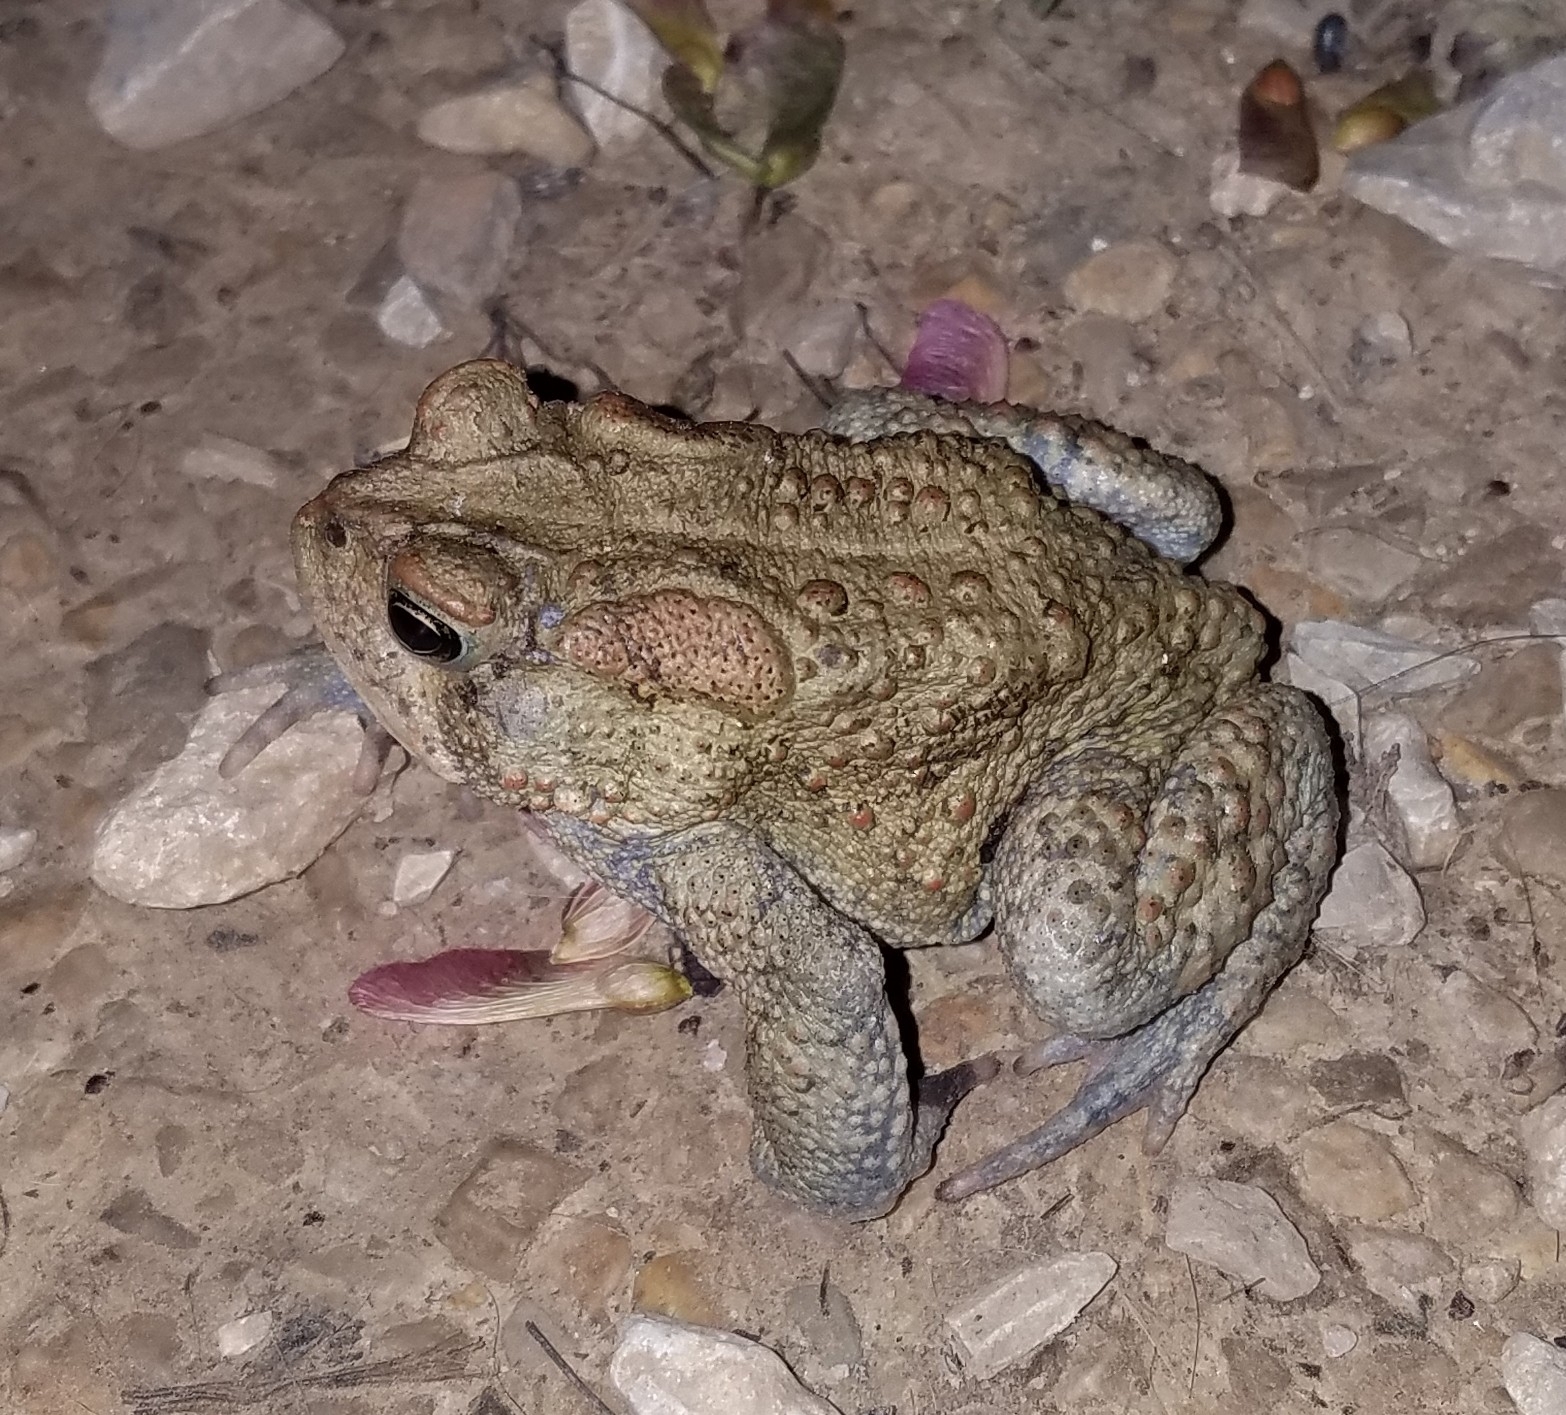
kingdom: Animalia
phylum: Chordata
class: Amphibia
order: Anura
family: Bufonidae
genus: Anaxyrus
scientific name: Anaxyrus americanus
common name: American toad
